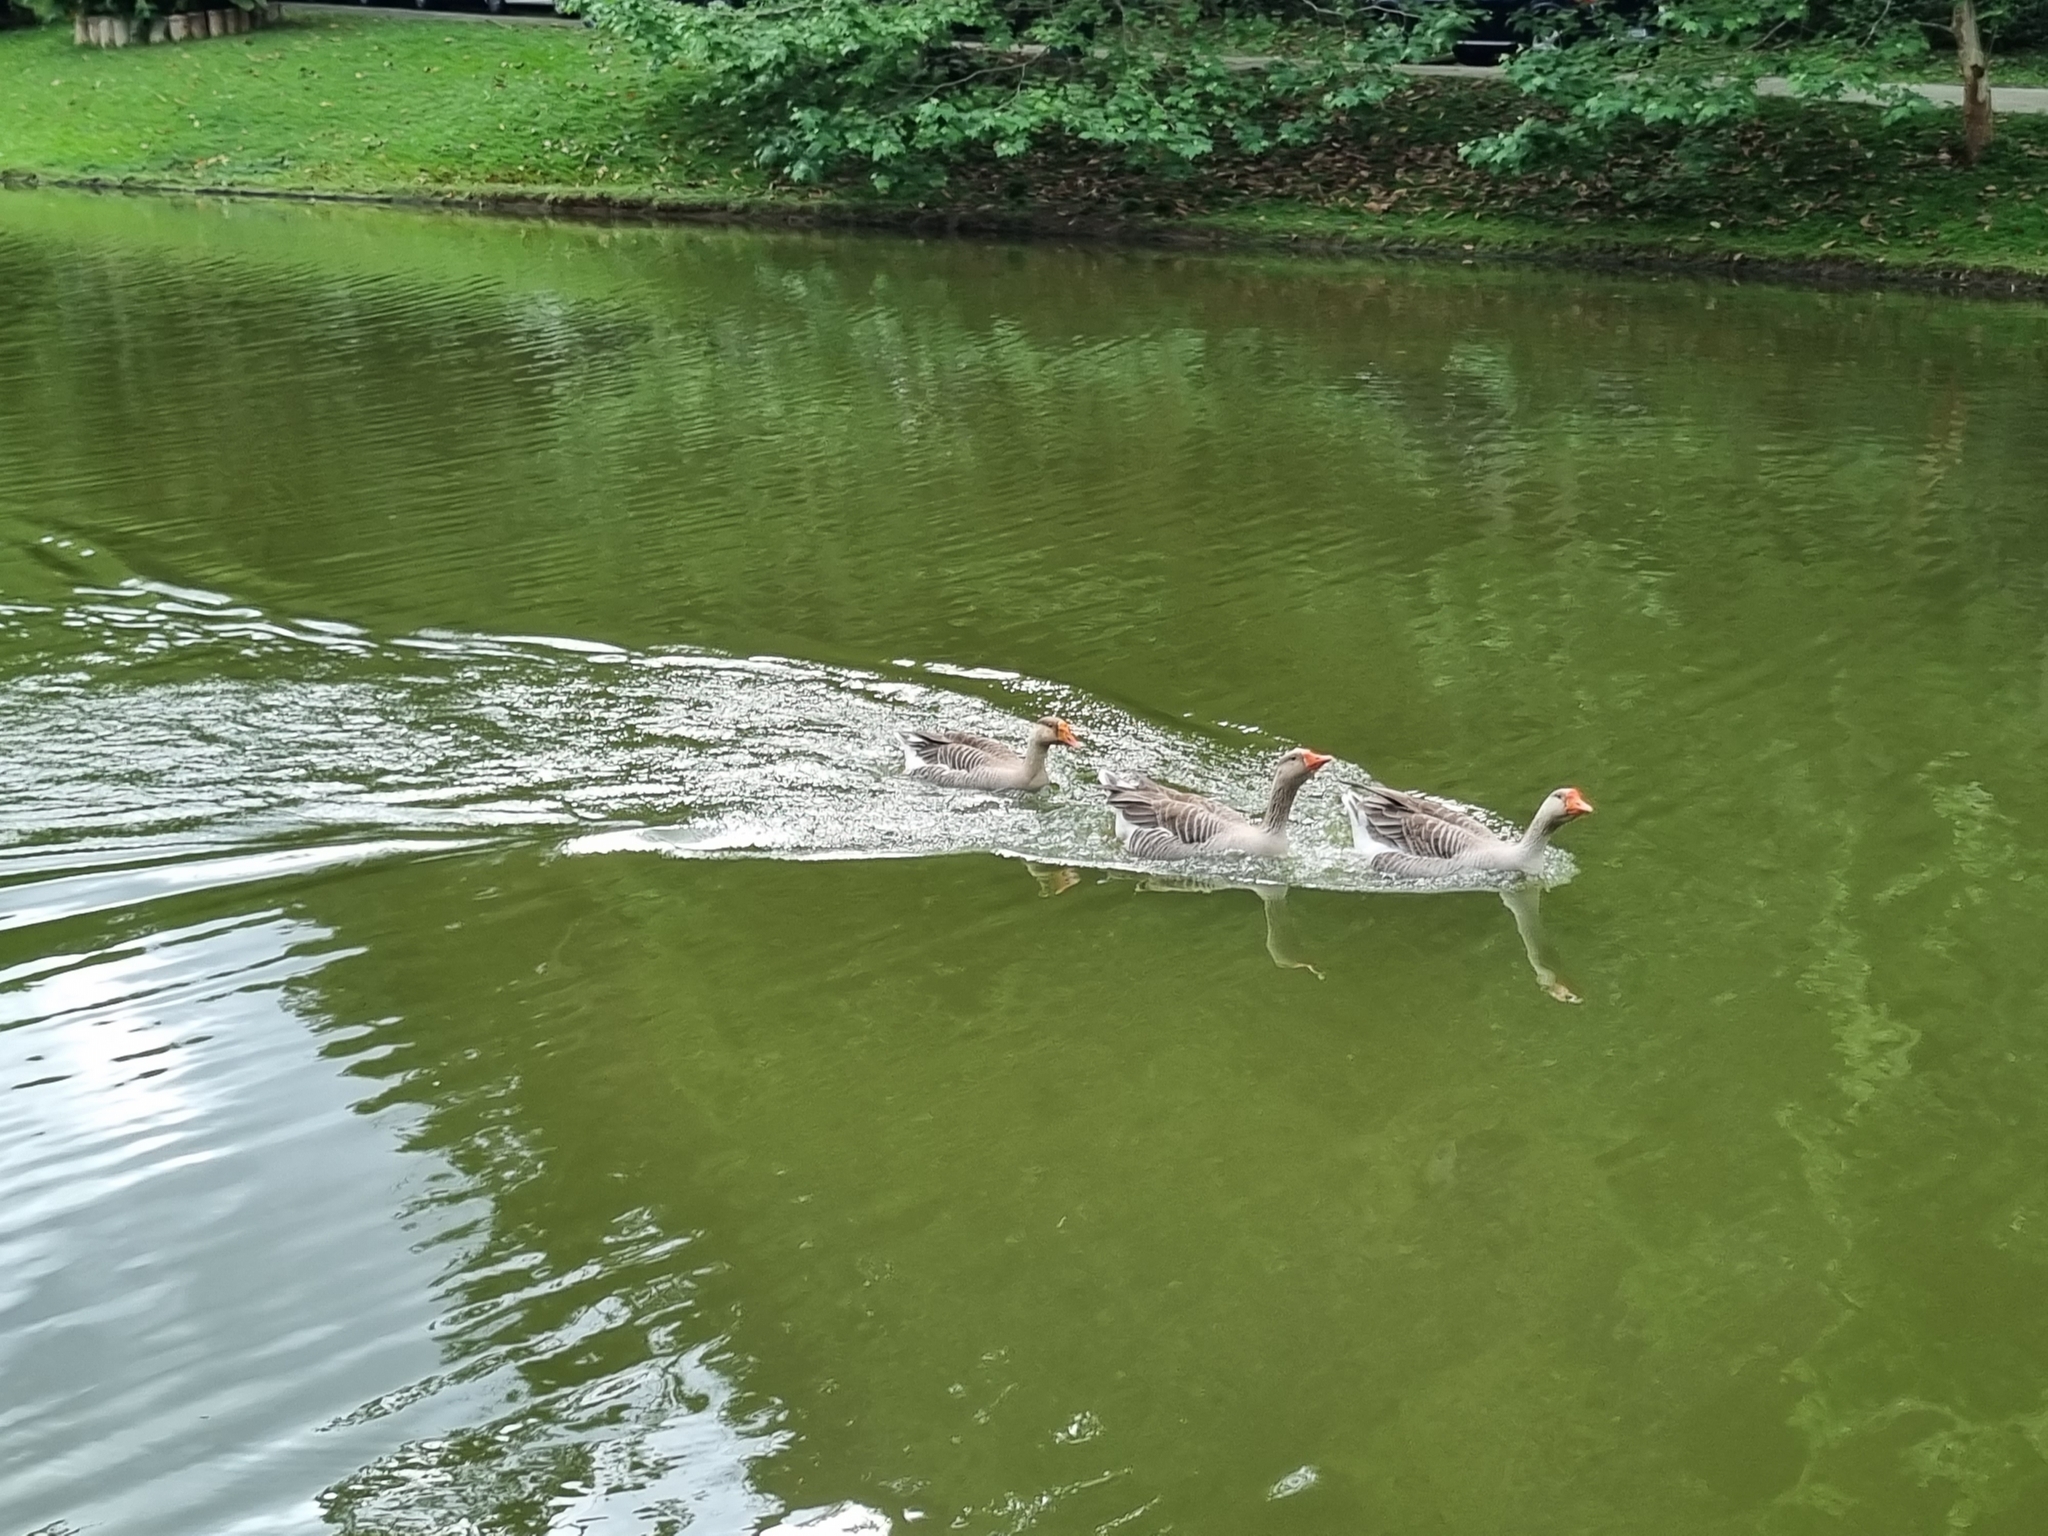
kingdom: Animalia
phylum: Chordata
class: Aves
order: Anseriformes
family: Anatidae
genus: Anser
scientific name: Anser
